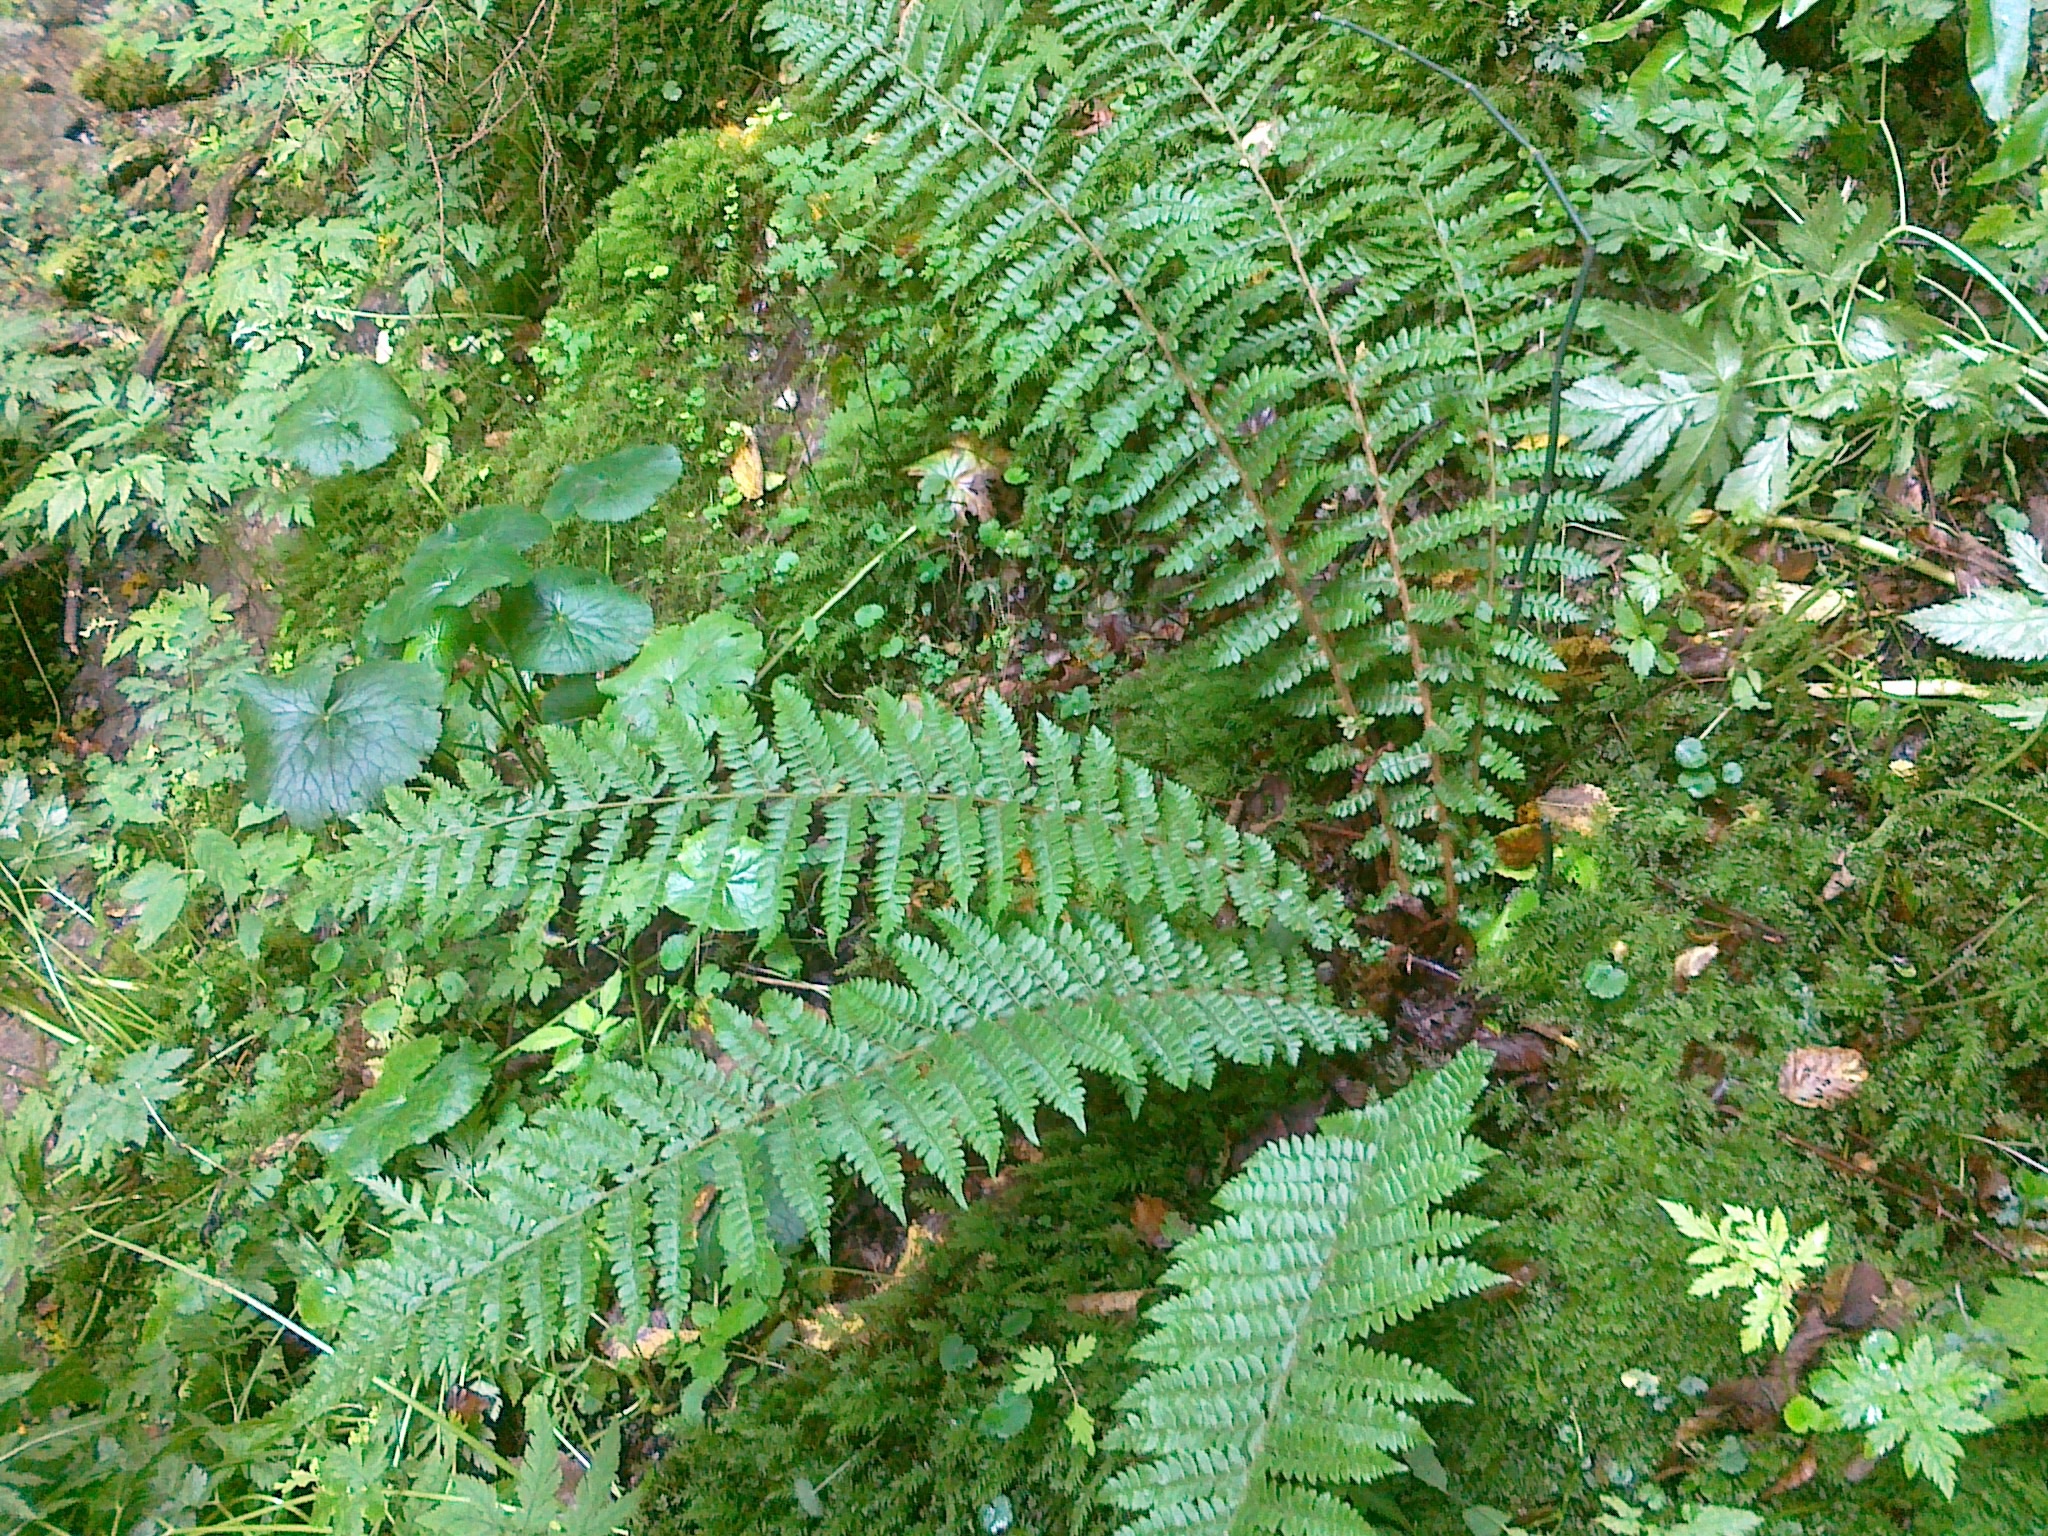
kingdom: Plantae
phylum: Tracheophyta
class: Polypodiopsida
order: Polypodiales
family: Dryopteridaceae
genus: Polystichum
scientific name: Polystichum braunii
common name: Braun's holly fern
